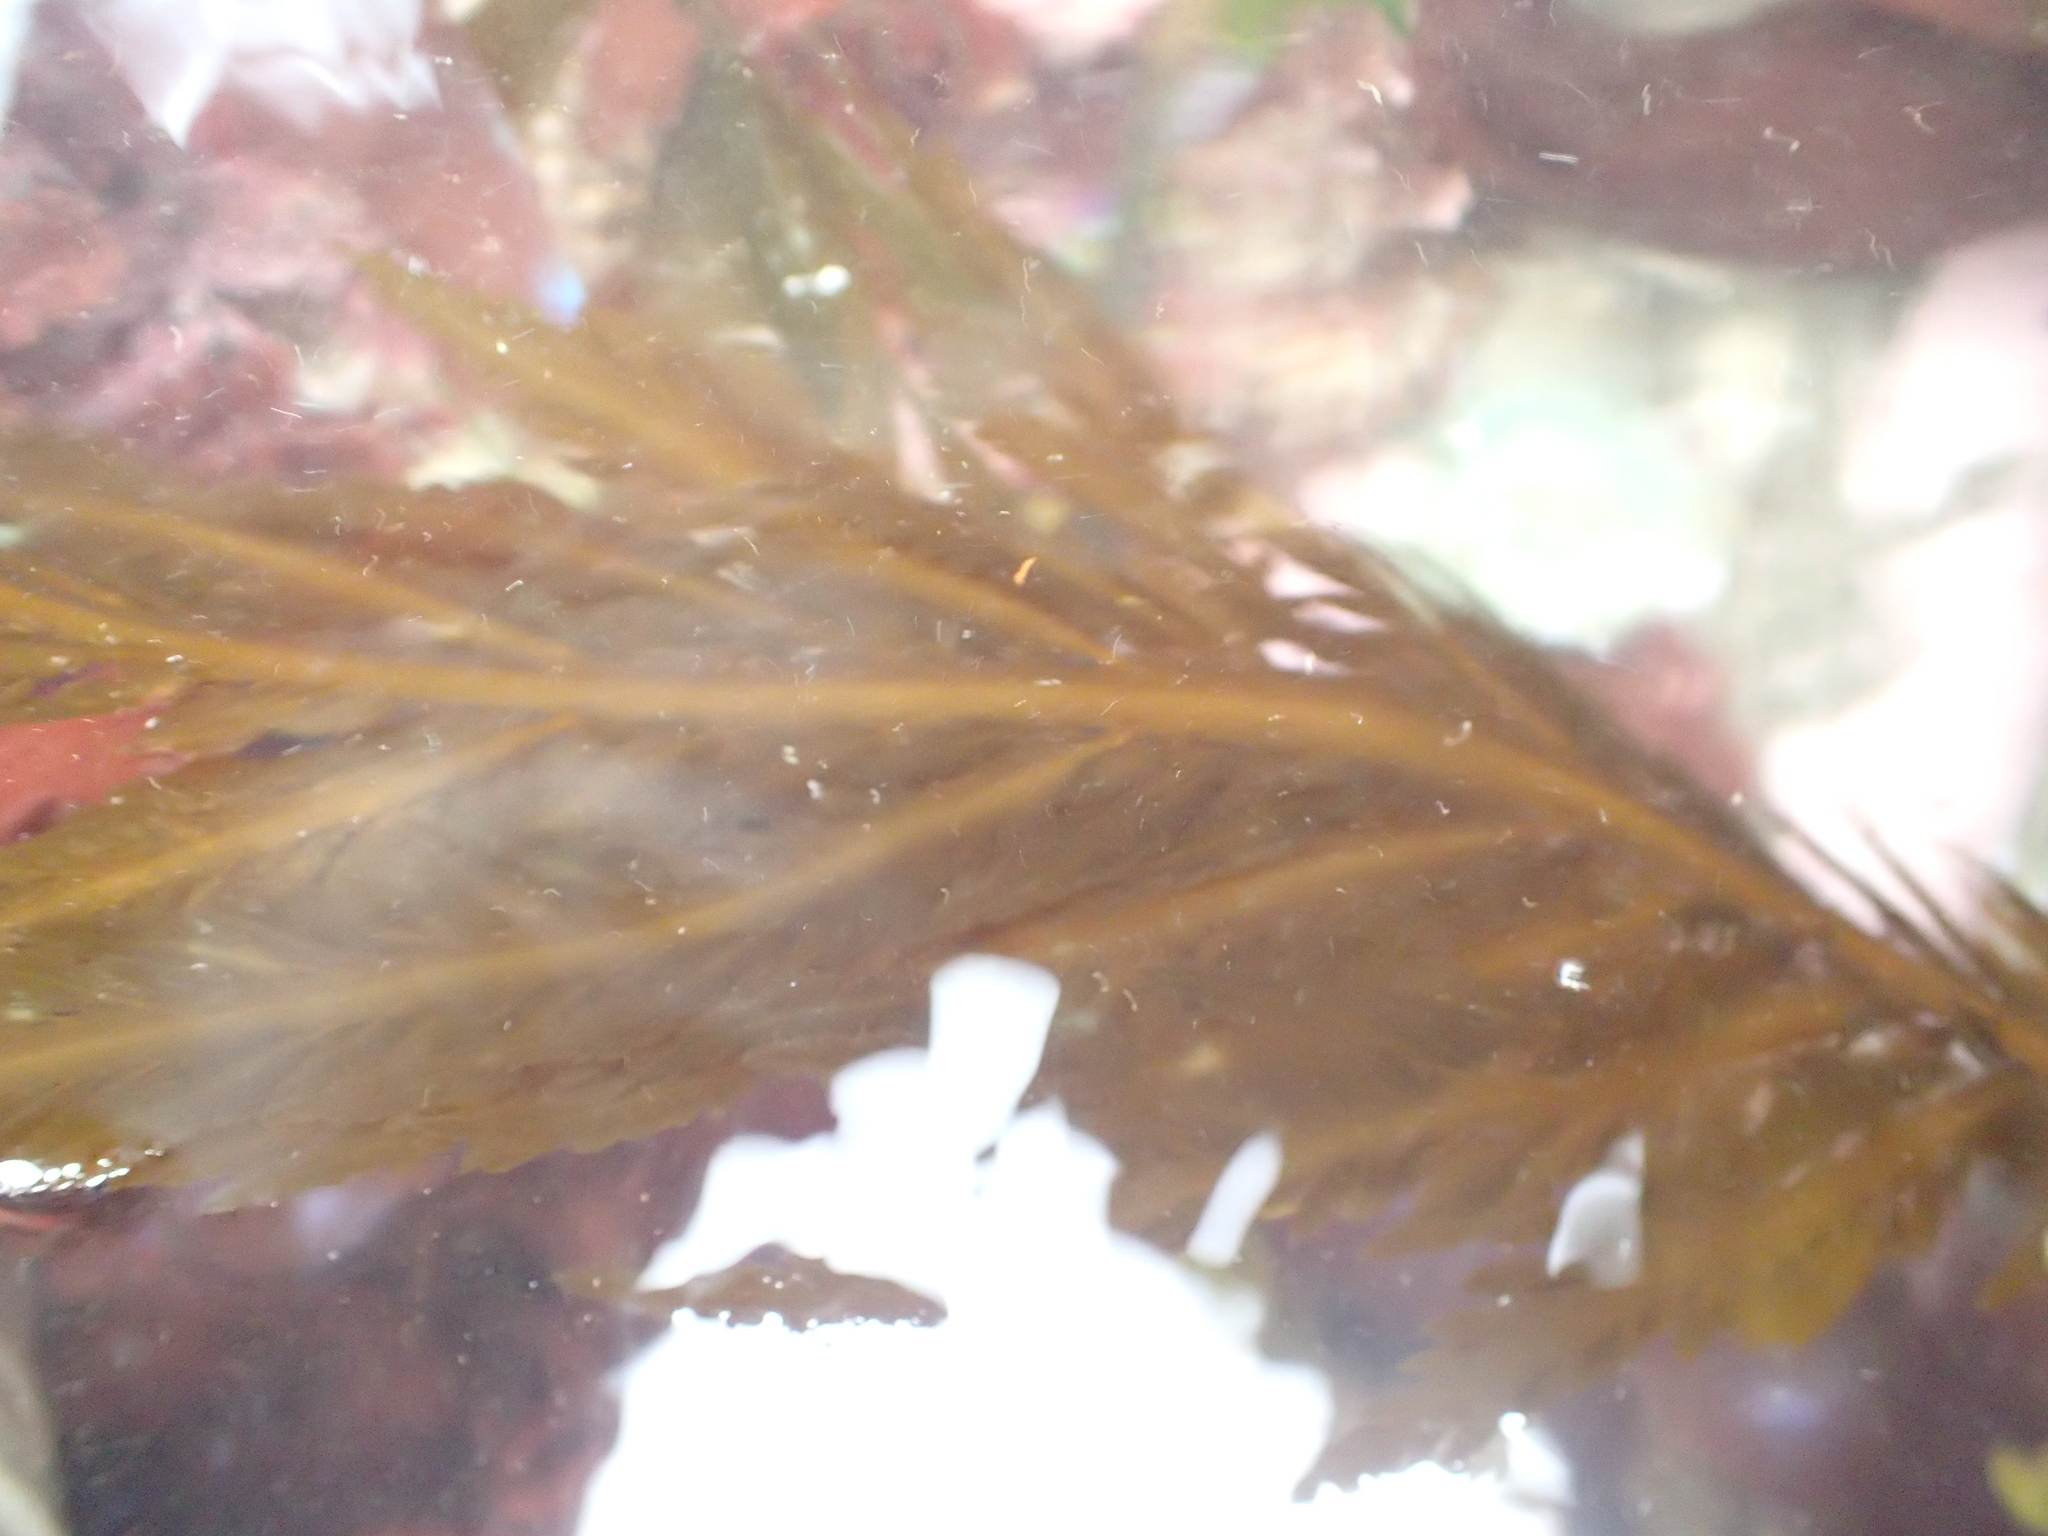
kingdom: Chromista
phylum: Ochrophyta
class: Phaeophyceae
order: Desmarestiales
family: Desmarestiaceae
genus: Desmarestia
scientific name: Desmarestia ligulata
